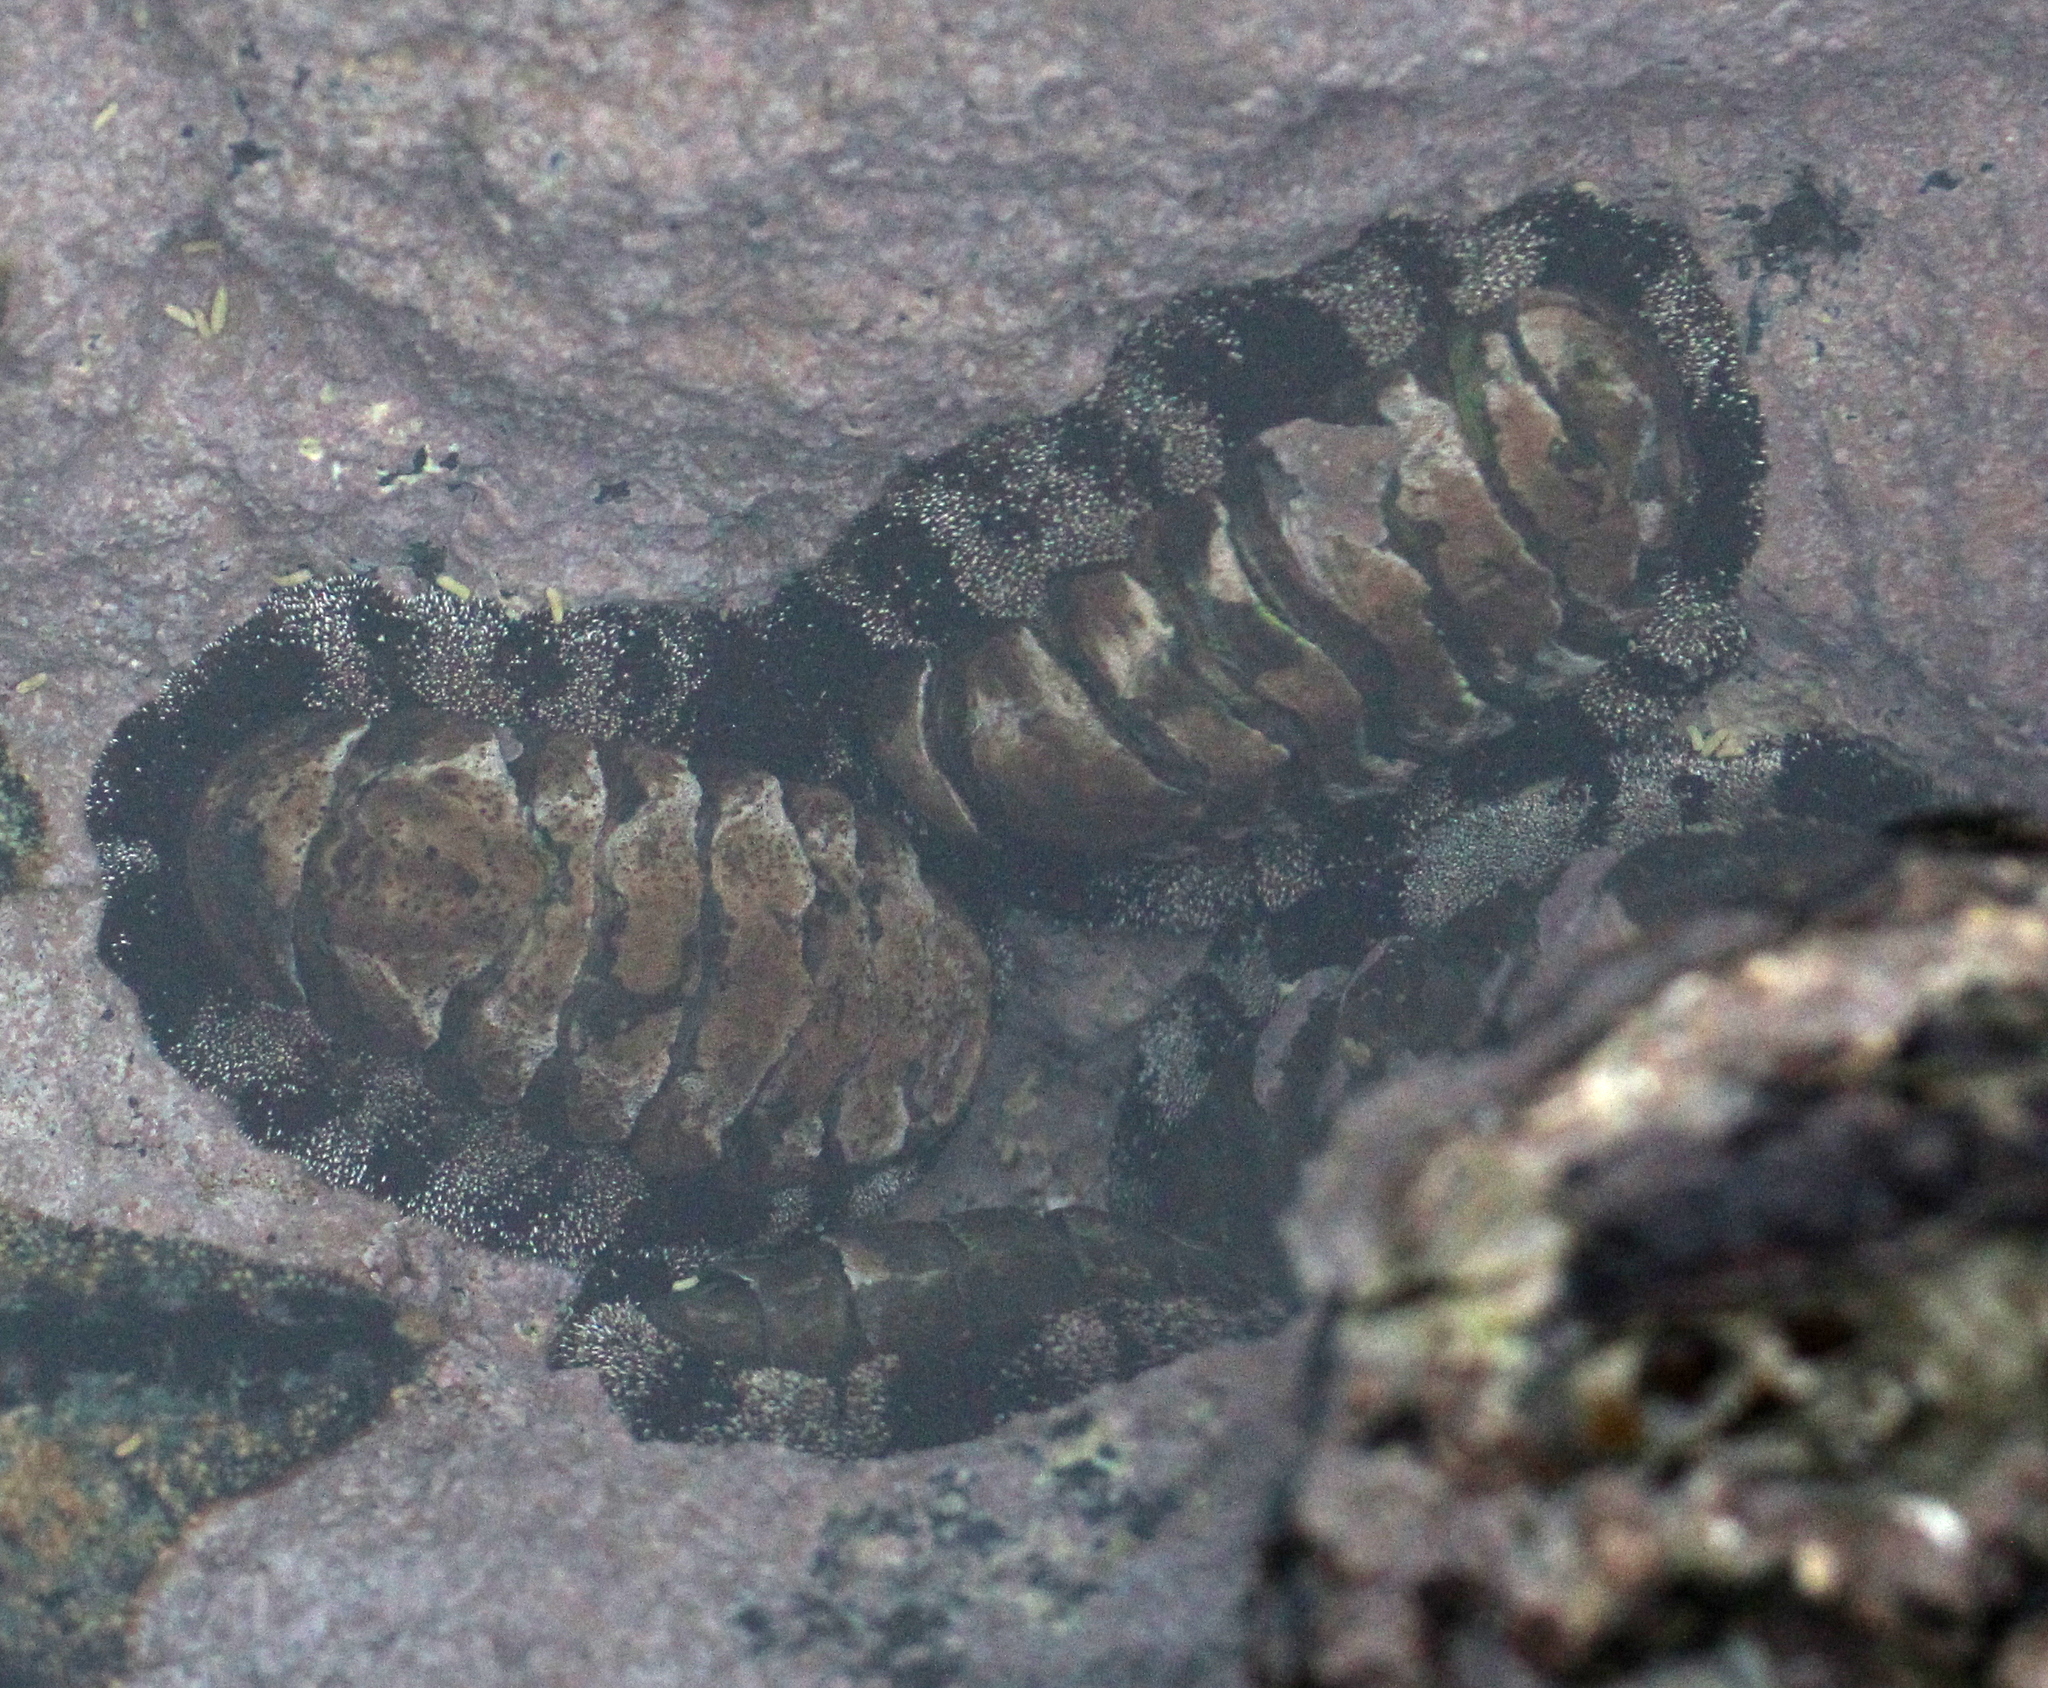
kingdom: Animalia
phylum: Mollusca
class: Polyplacophora
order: Chitonida
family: Chitonidae
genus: Acanthopleura
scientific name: Acanthopleura vaillantii
